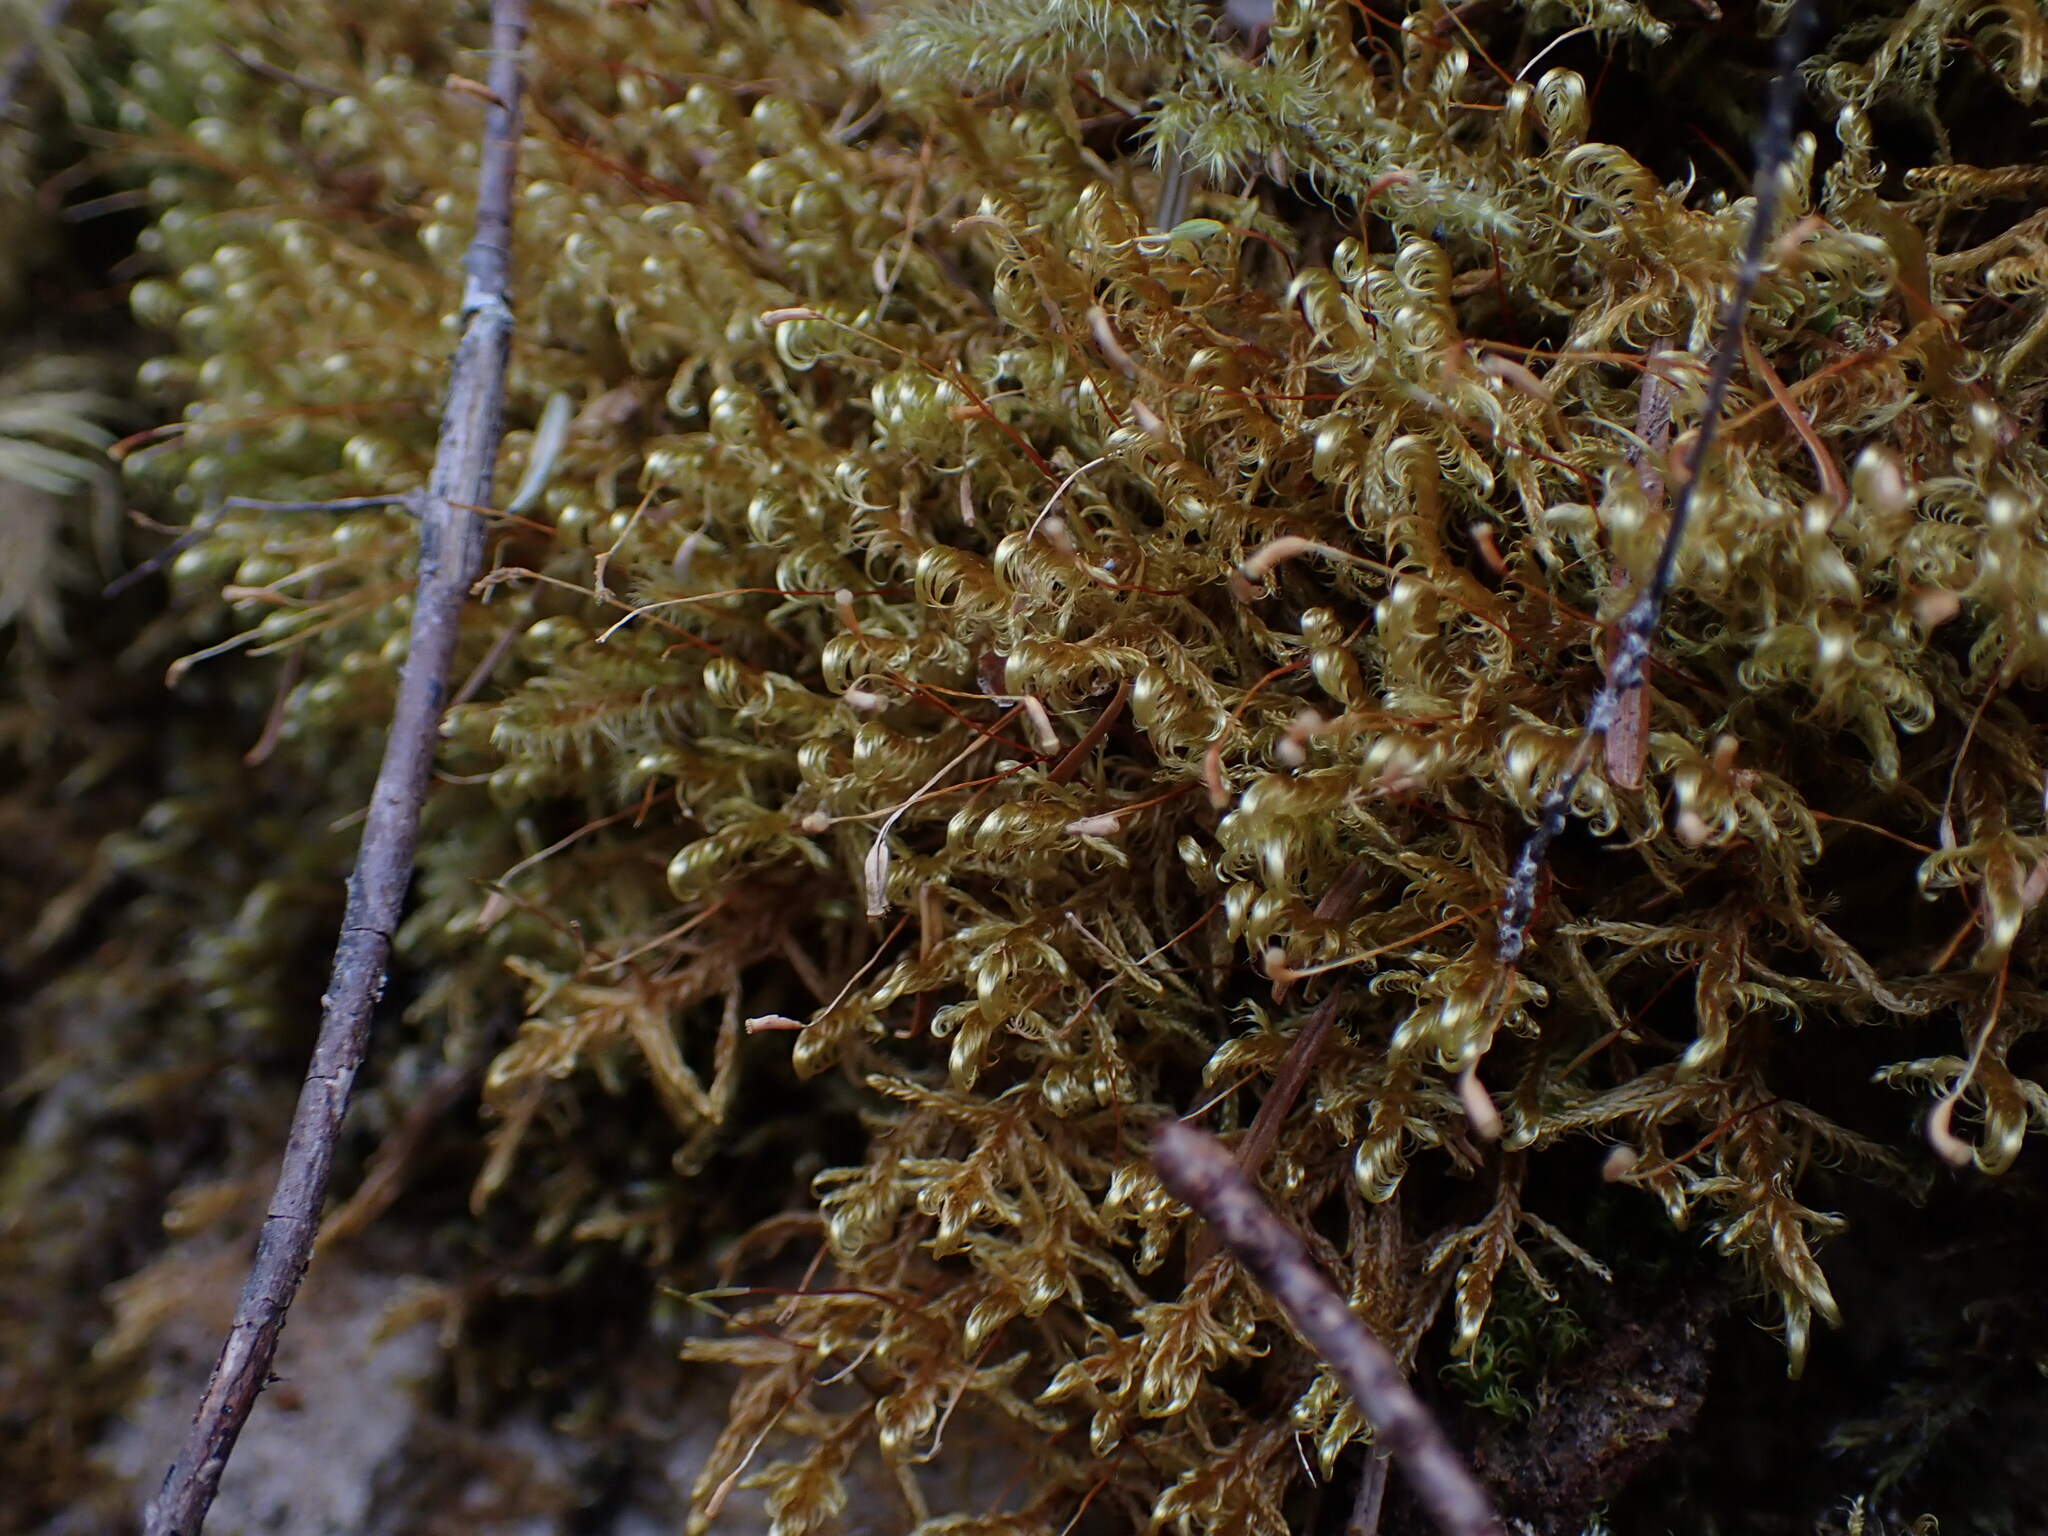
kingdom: Plantae
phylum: Bryophyta
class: Bryopsida
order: Hypnales
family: Scorpidiaceae
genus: Sanionia
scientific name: Sanionia uncinata
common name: Sickle moss
